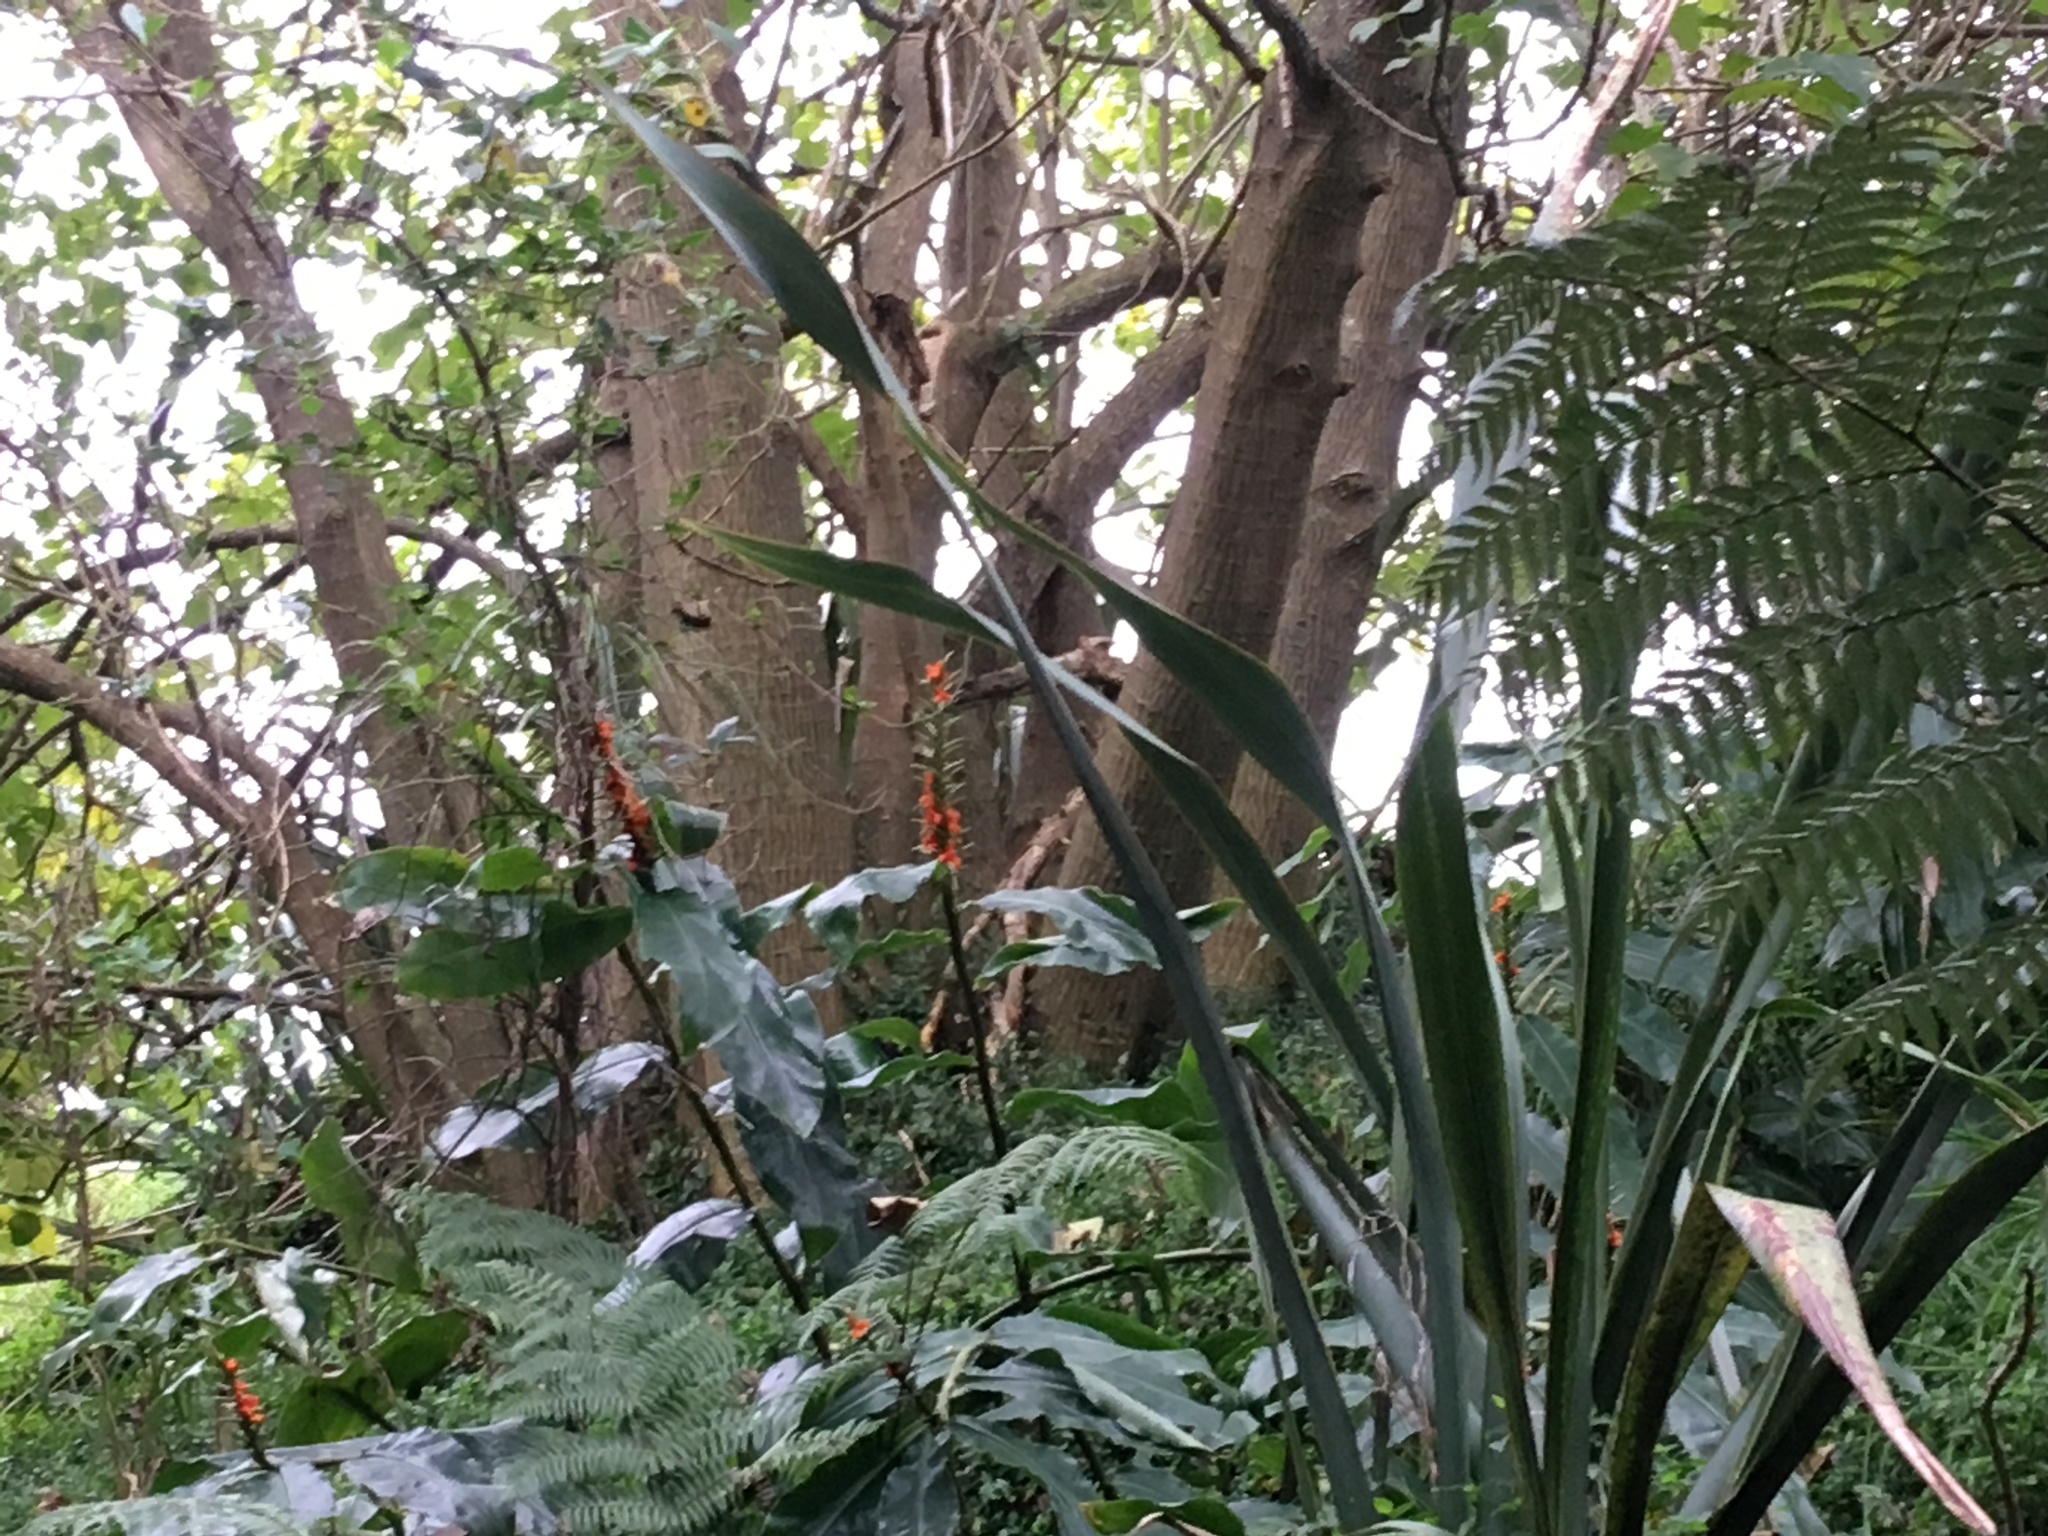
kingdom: Plantae
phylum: Tracheophyta
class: Magnoliopsida
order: Fabales
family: Fabaceae
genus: Erythrina
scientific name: Erythrina sykesii
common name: Coraltree
